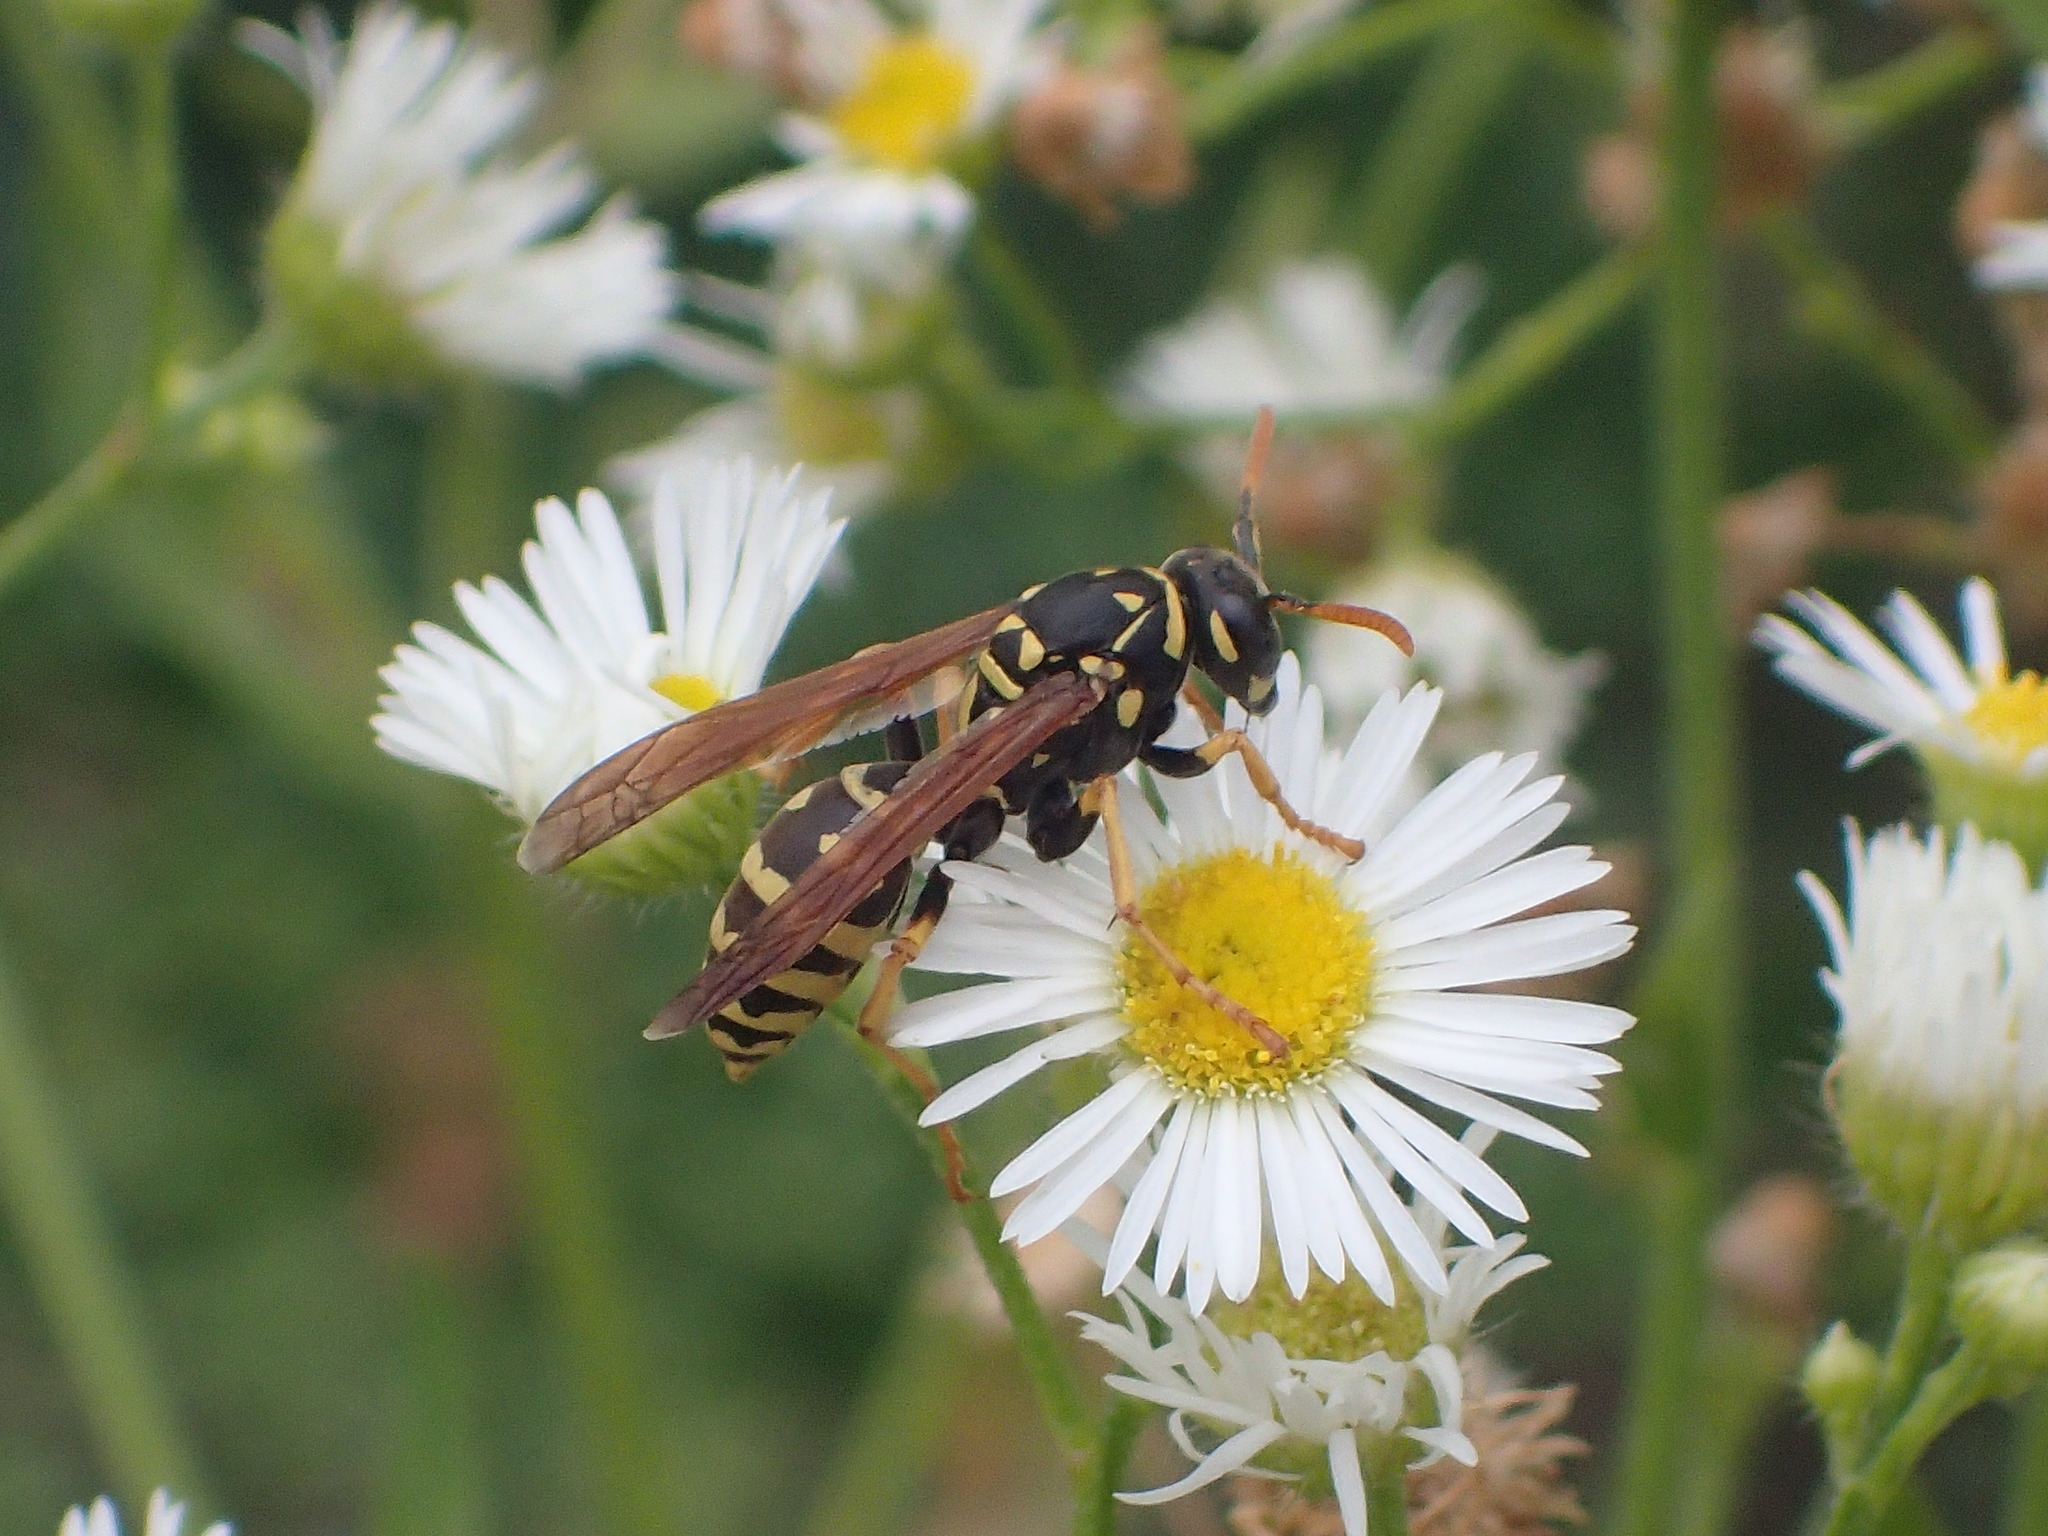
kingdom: Animalia
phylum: Arthropoda
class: Insecta
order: Hymenoptera
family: Eumenidae
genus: Polistes
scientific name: Polistes dominula
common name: Paper wasp
